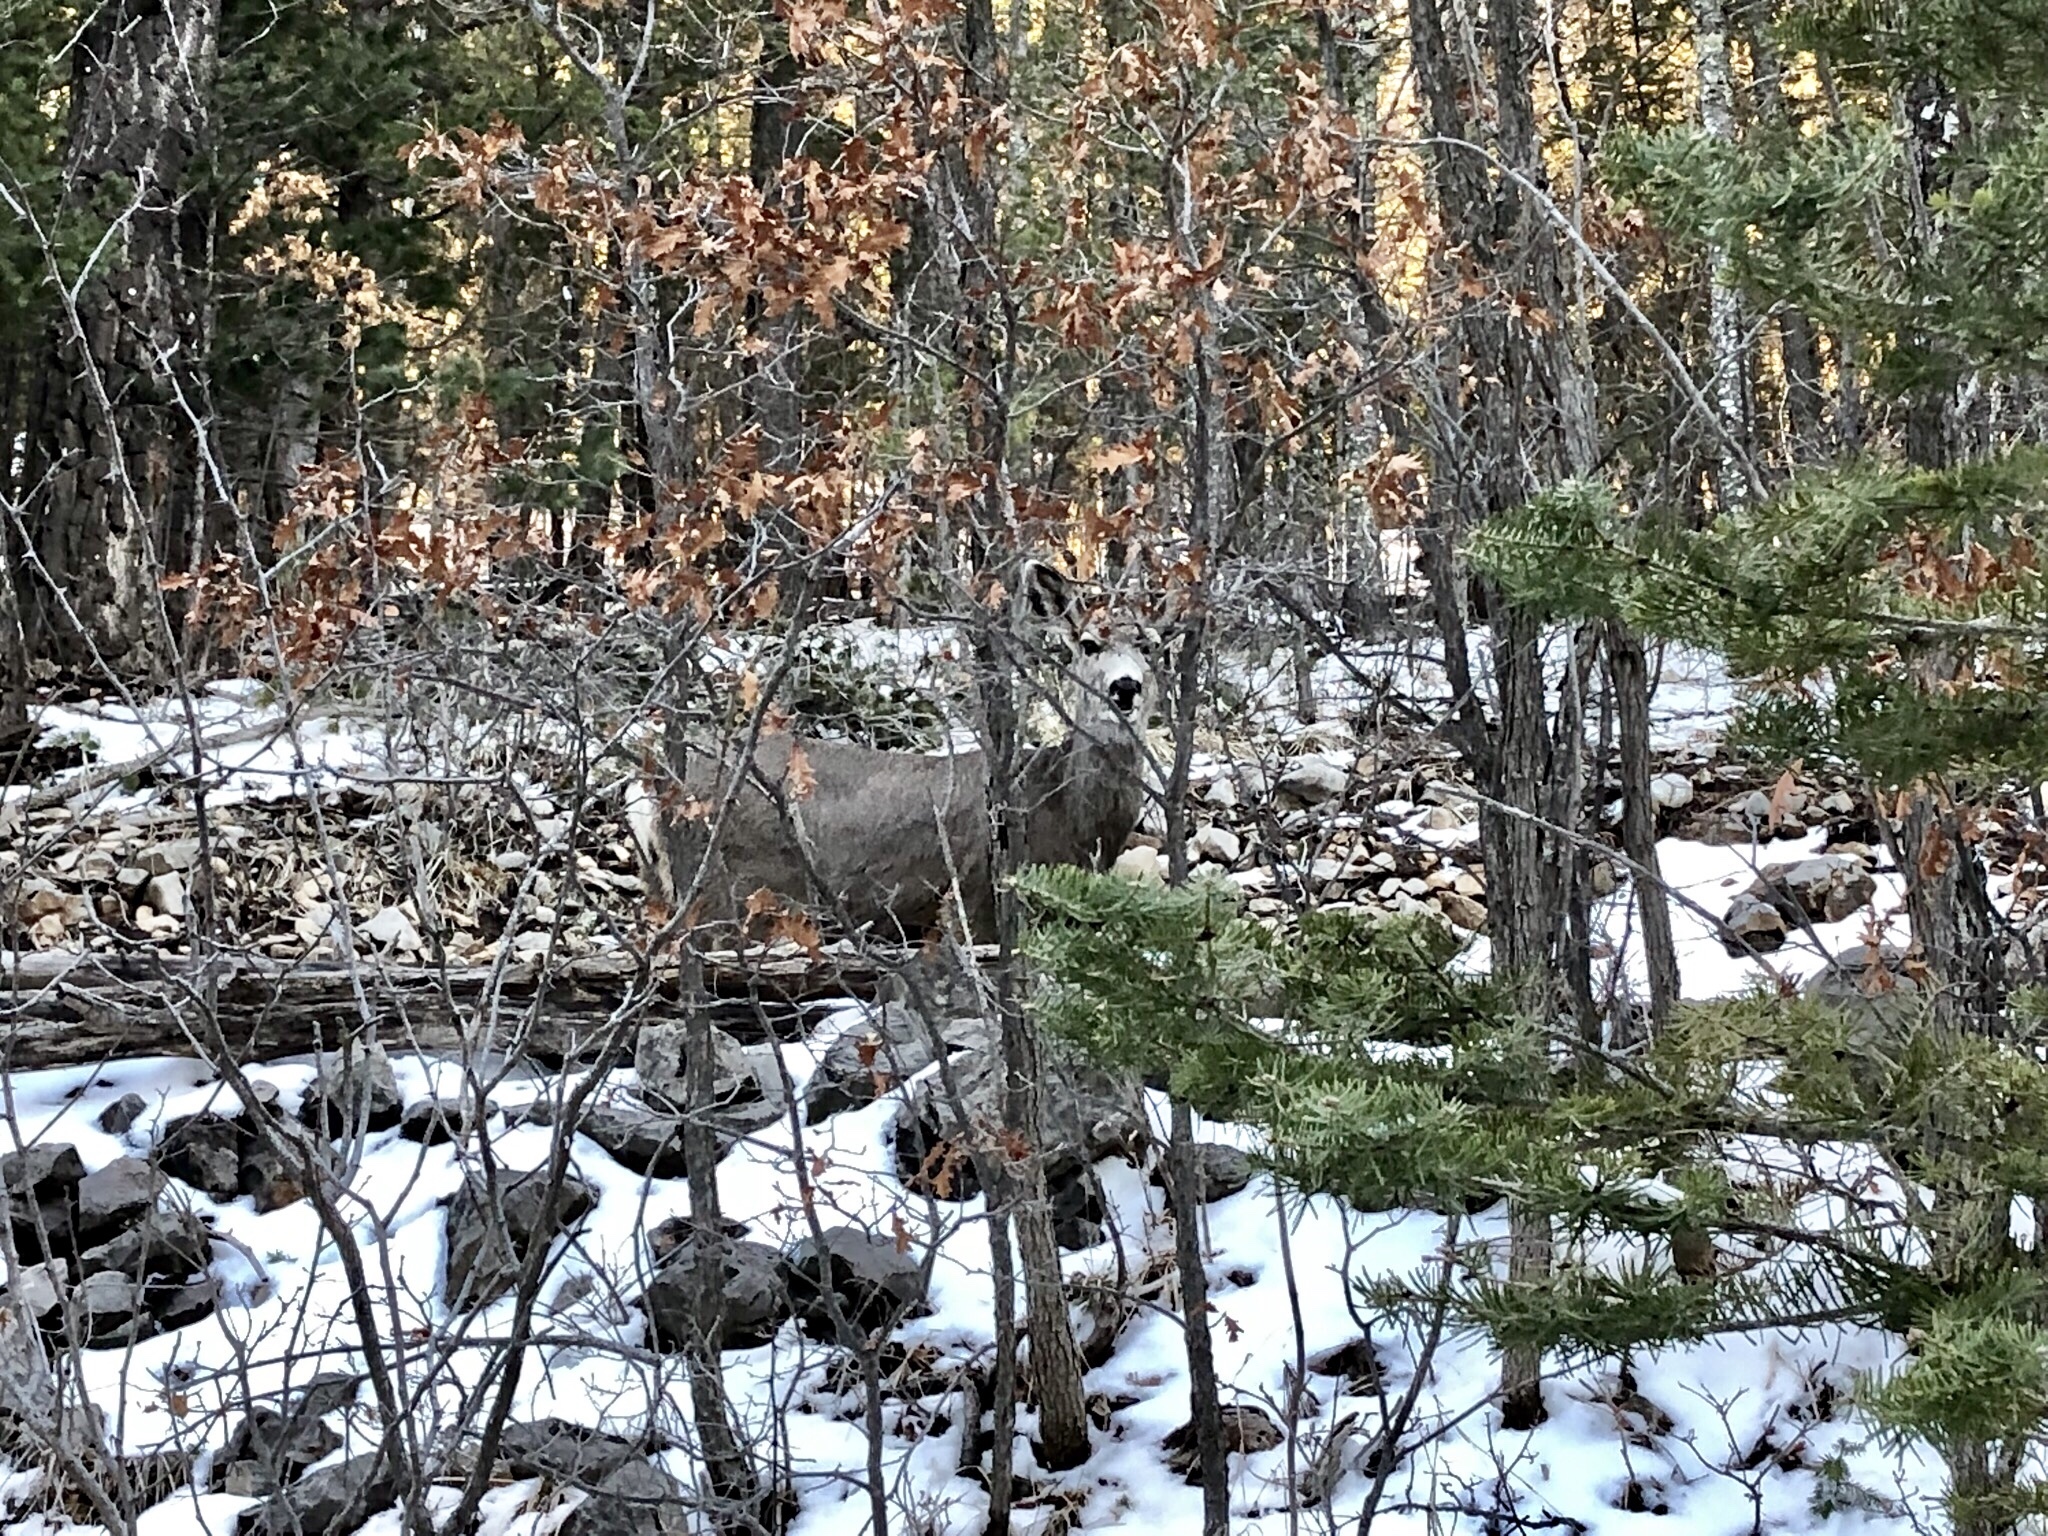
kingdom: Animalia
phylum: Chordata
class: Mammalia
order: Artiodactyla
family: Cervidae
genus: Odocoileus
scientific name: Odocoileus hemionus
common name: Mule deer
